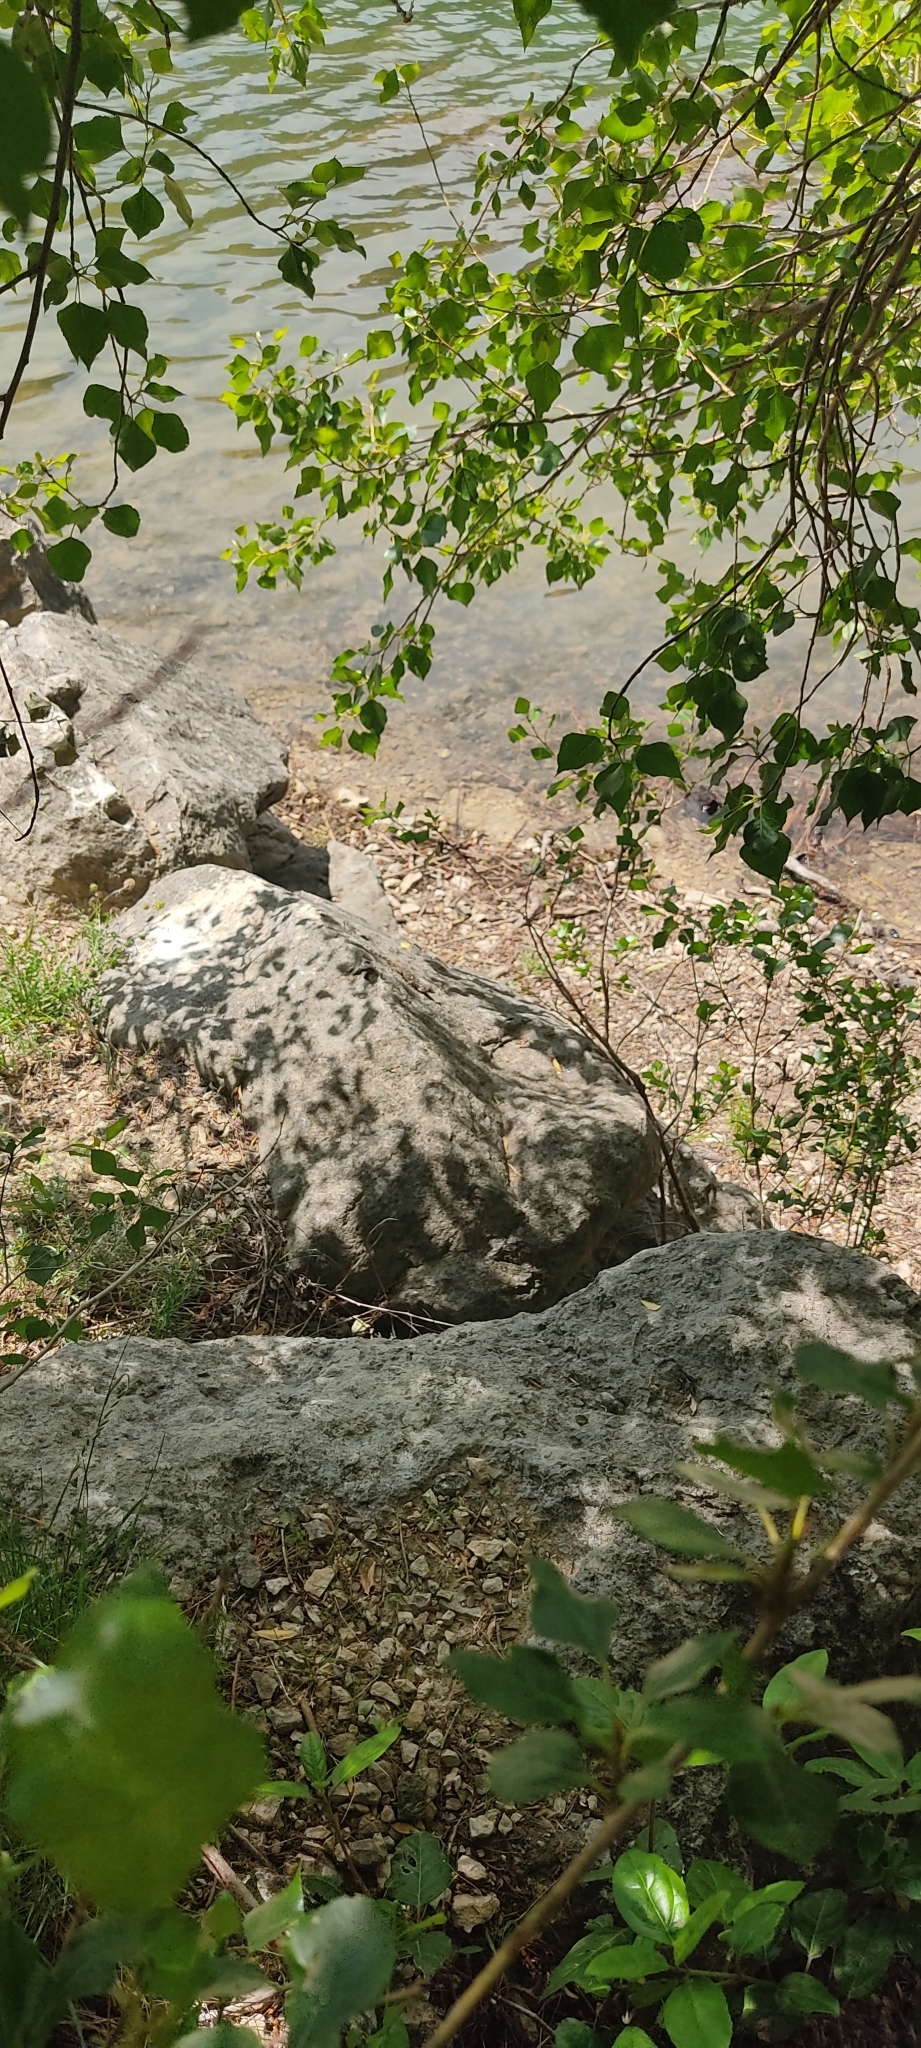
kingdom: Animalia
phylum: Chordata
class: Squamata
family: Phyllodactylidae
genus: Tarentola
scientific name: Tarentola mauritanica
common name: Moorish gecko
